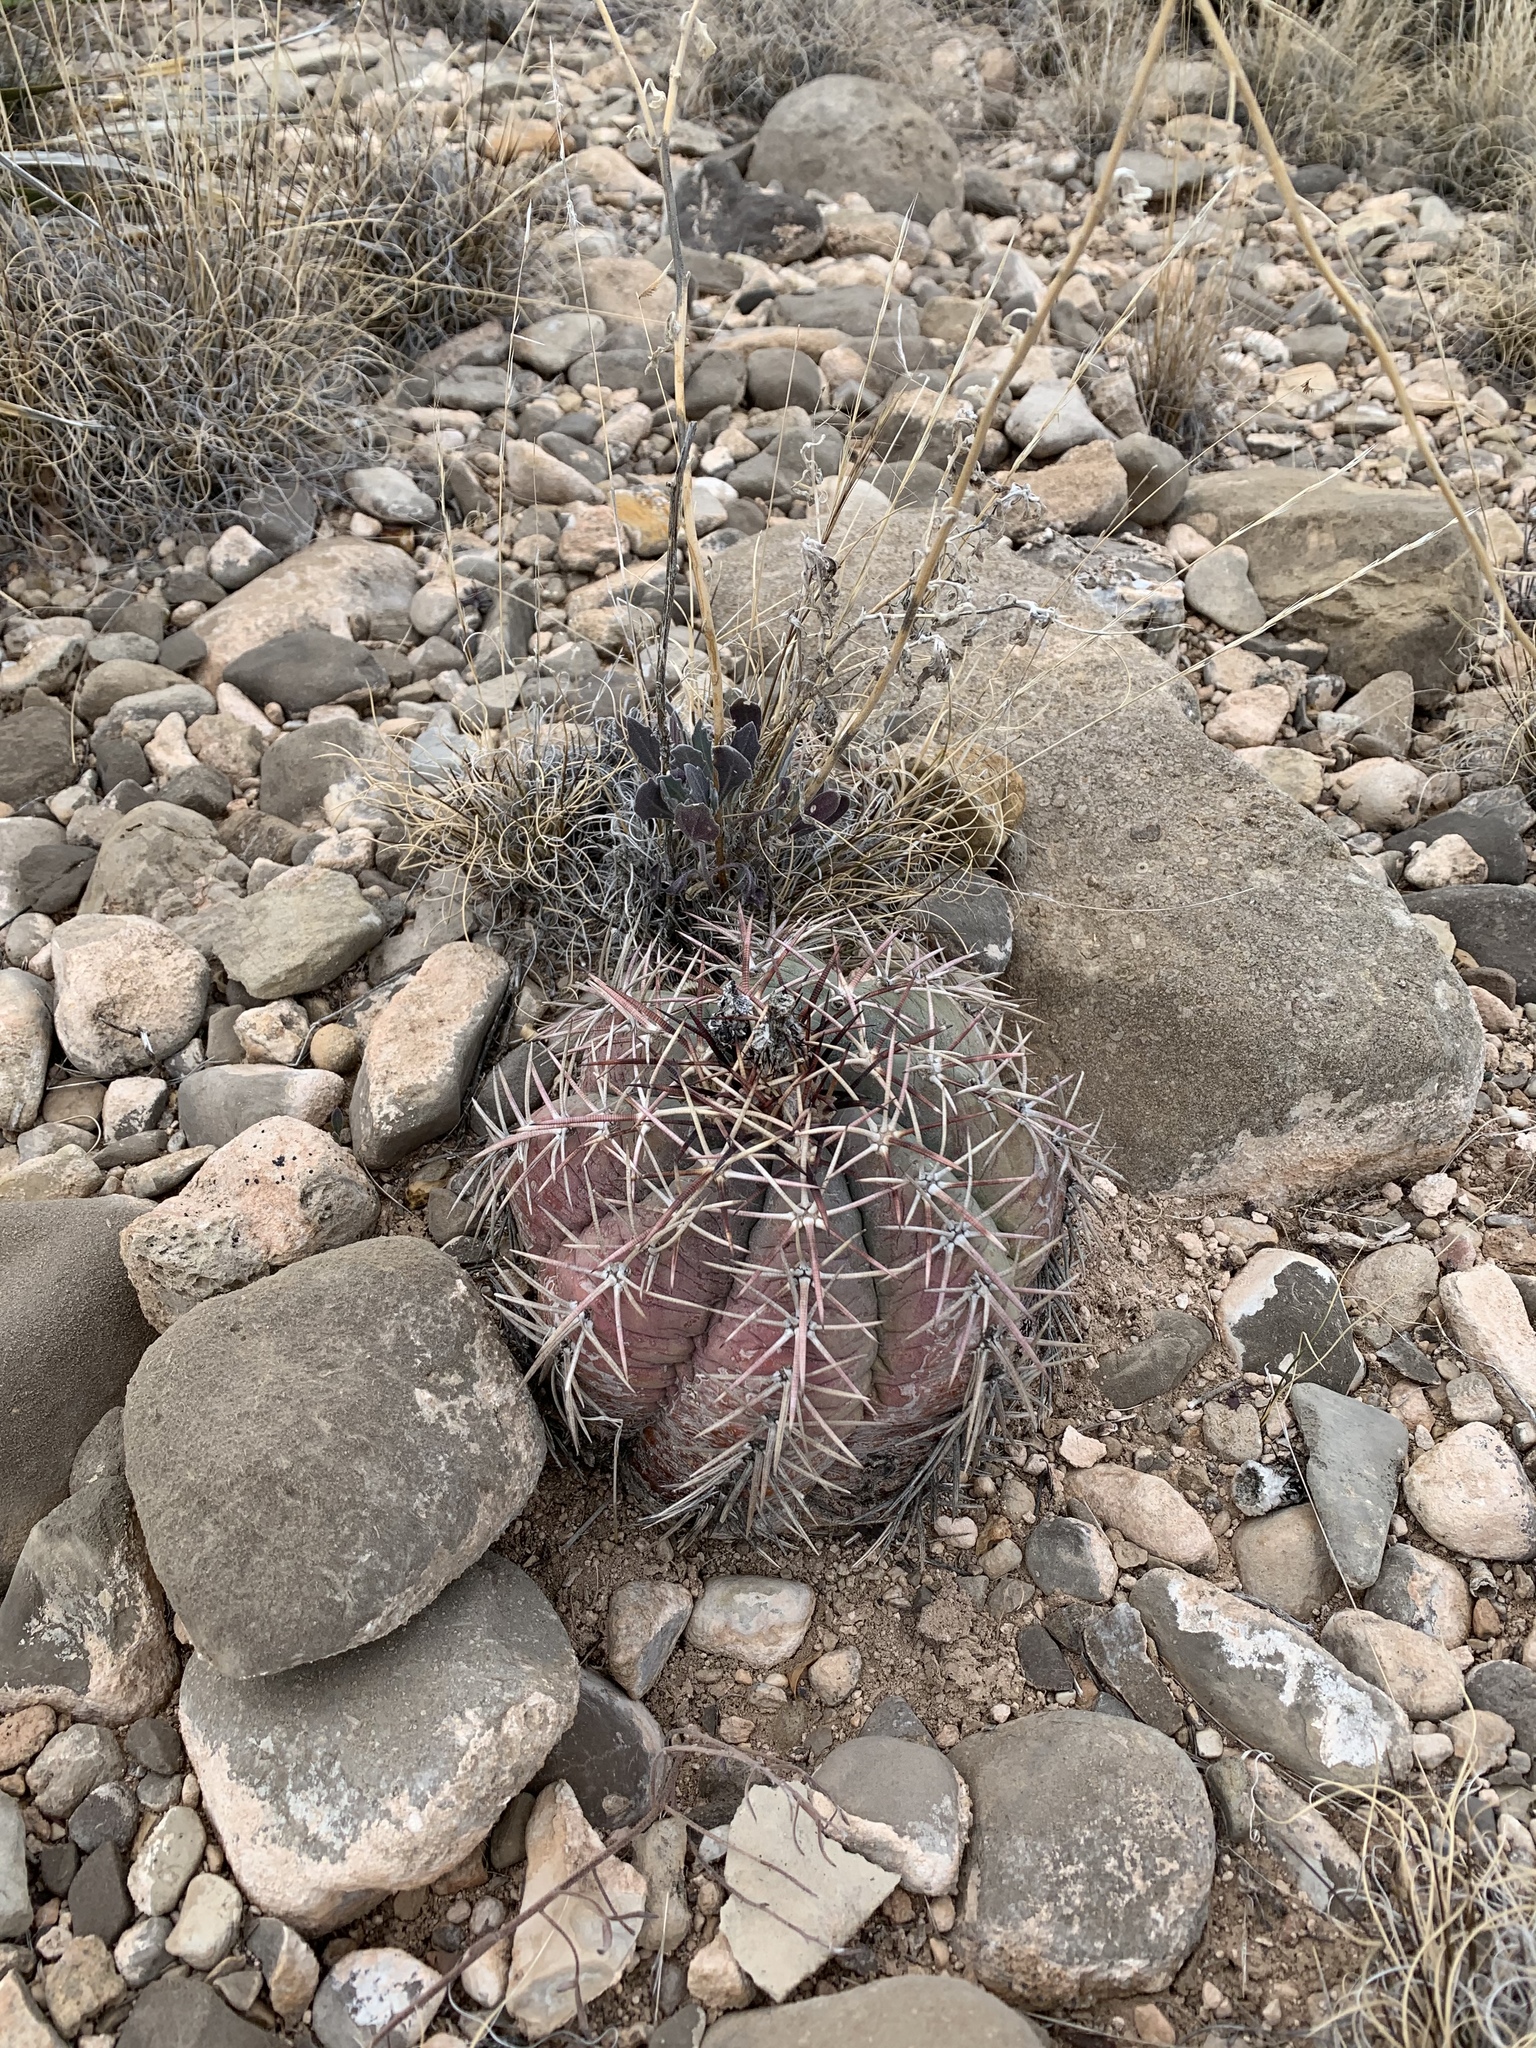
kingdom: Plantae
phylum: Tracheophyta
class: Magnoliopsida
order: Caryophyllales
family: Cactaceae
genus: Echinocactus
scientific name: Echinocactus horizonthalonius
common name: Devilshead
